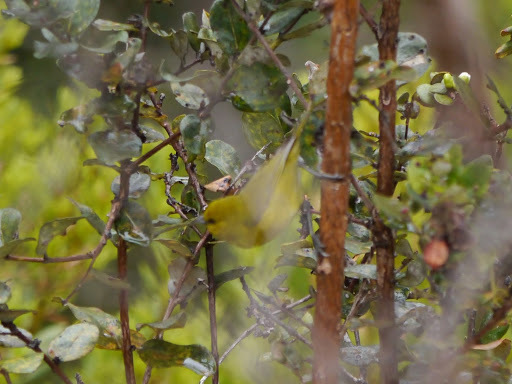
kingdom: Animalia
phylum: Chordata
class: Aves
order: Passeriformes
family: Fringillidae
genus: Chlorodrepanis
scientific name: Chlorodrepanis virens
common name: Hawaii amakihi
